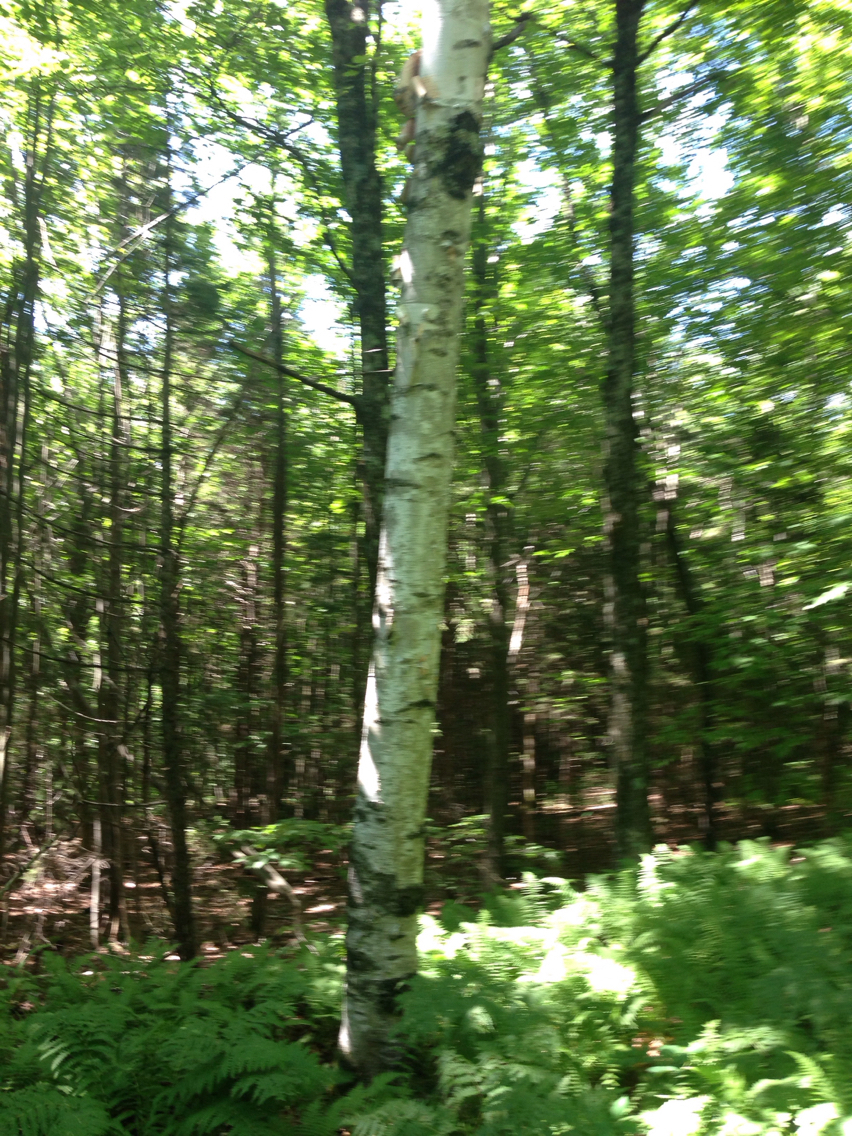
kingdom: Plantae
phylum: Tracheophyta
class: Magnoliopsida
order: Fagales
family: Betulaceae
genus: Betula
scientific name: Betula papyrifera
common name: Paper birch
